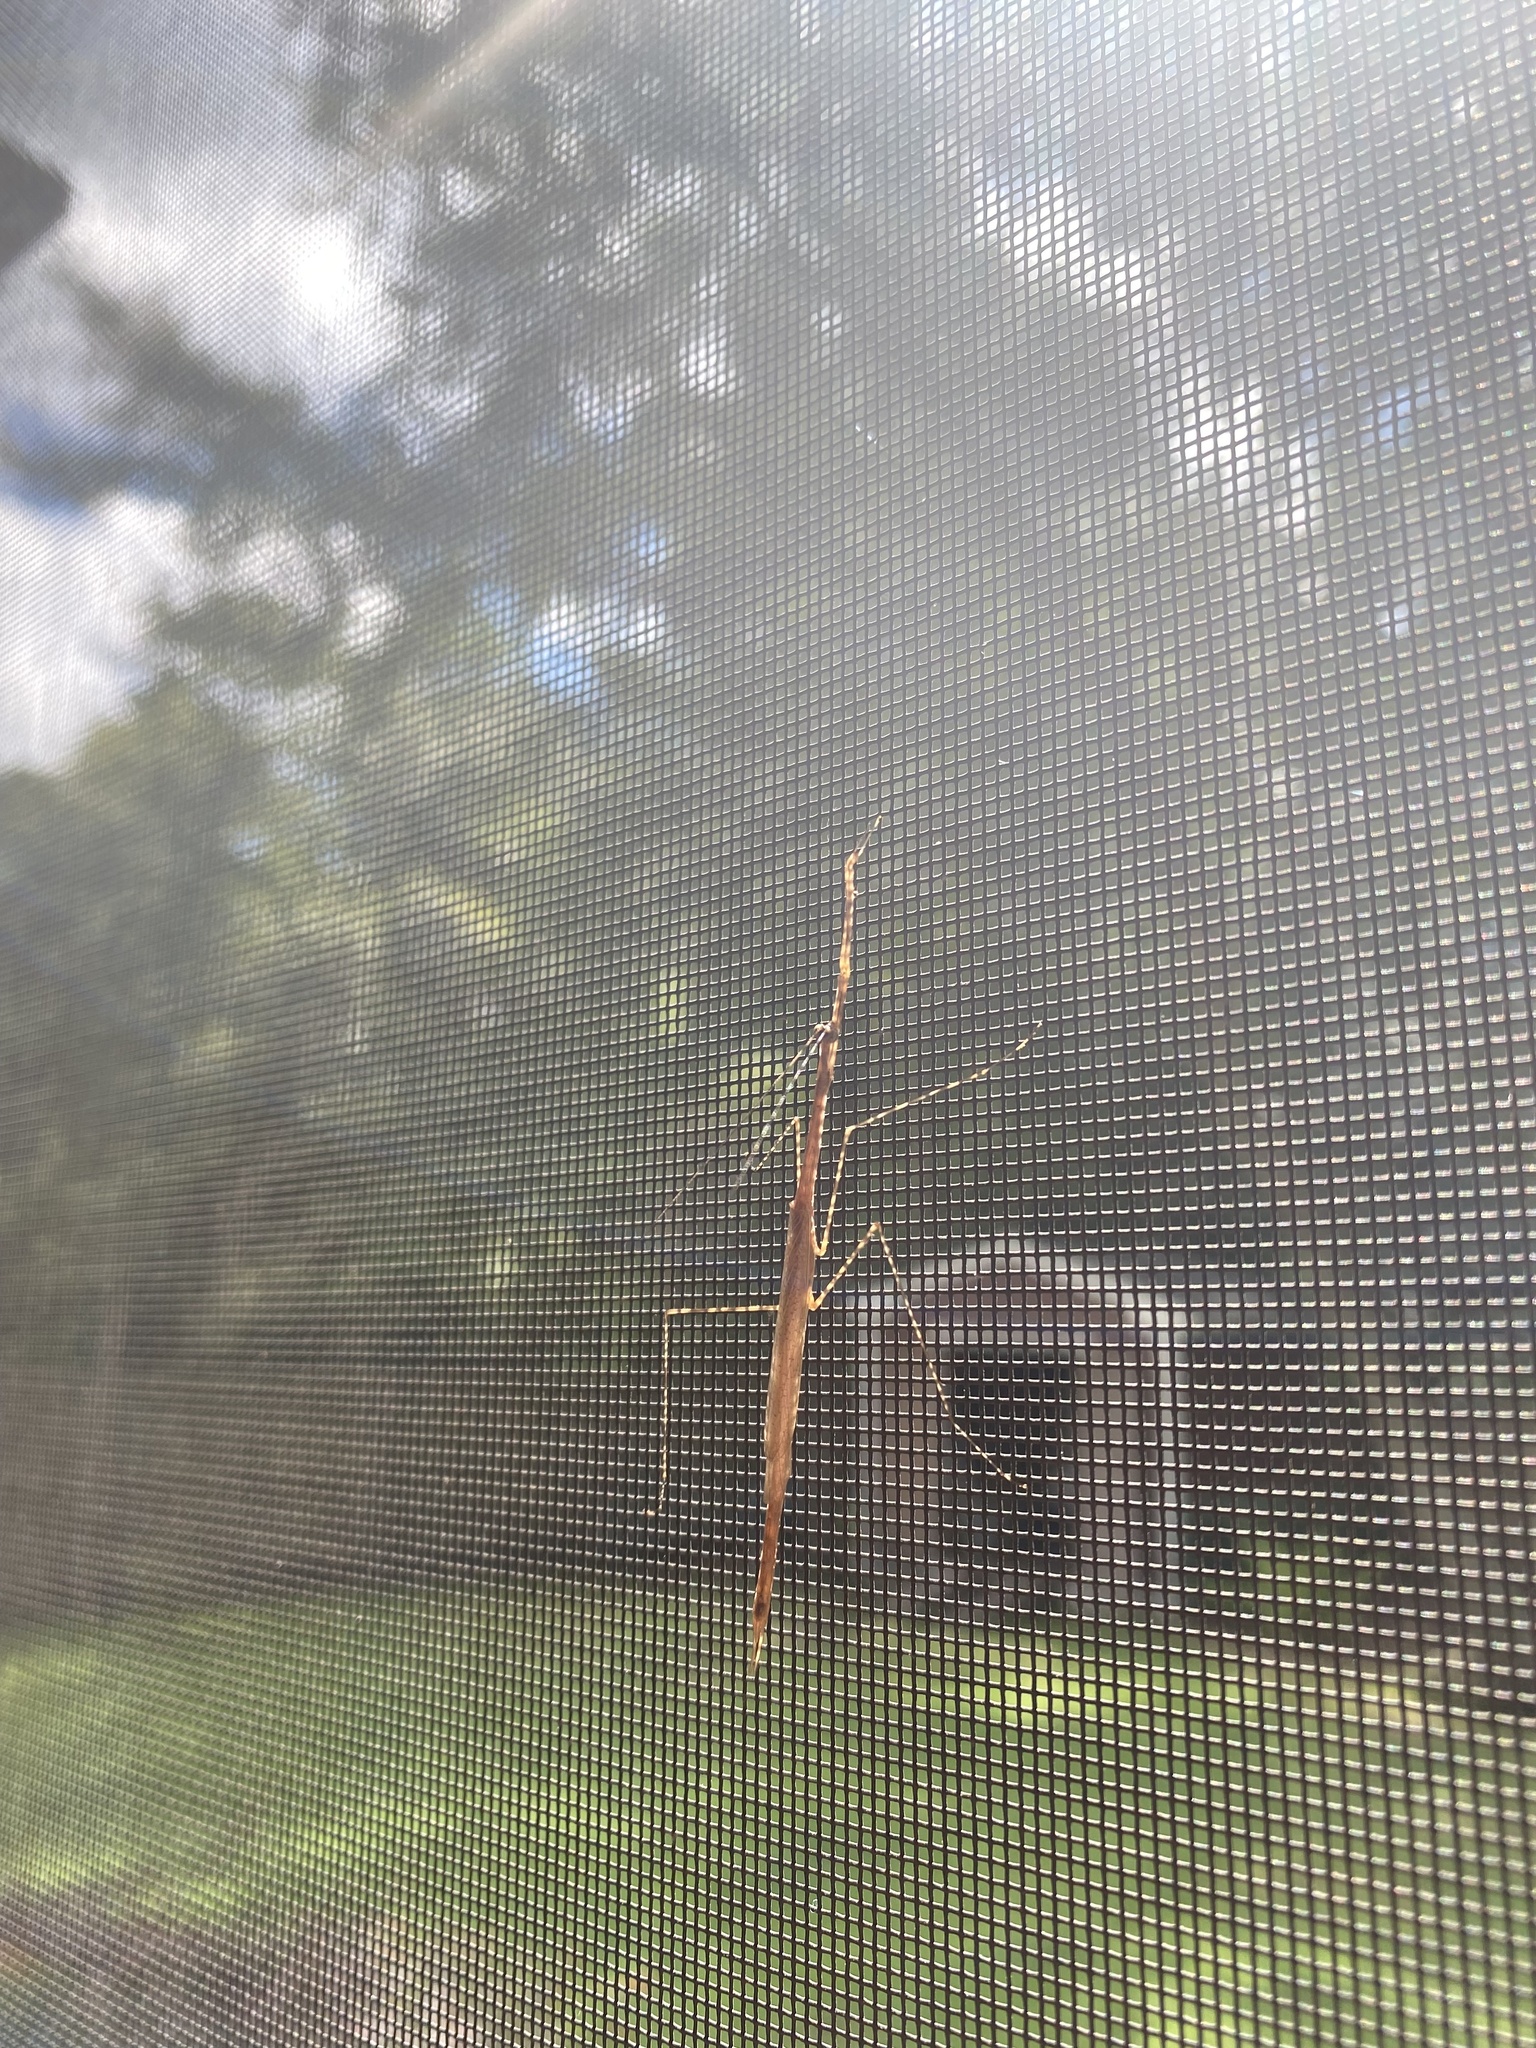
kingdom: Animalia
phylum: Arthropoda
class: Insecta
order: Mantodea
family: Thespidae
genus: Thesprotia
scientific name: Thesprotia graminis
